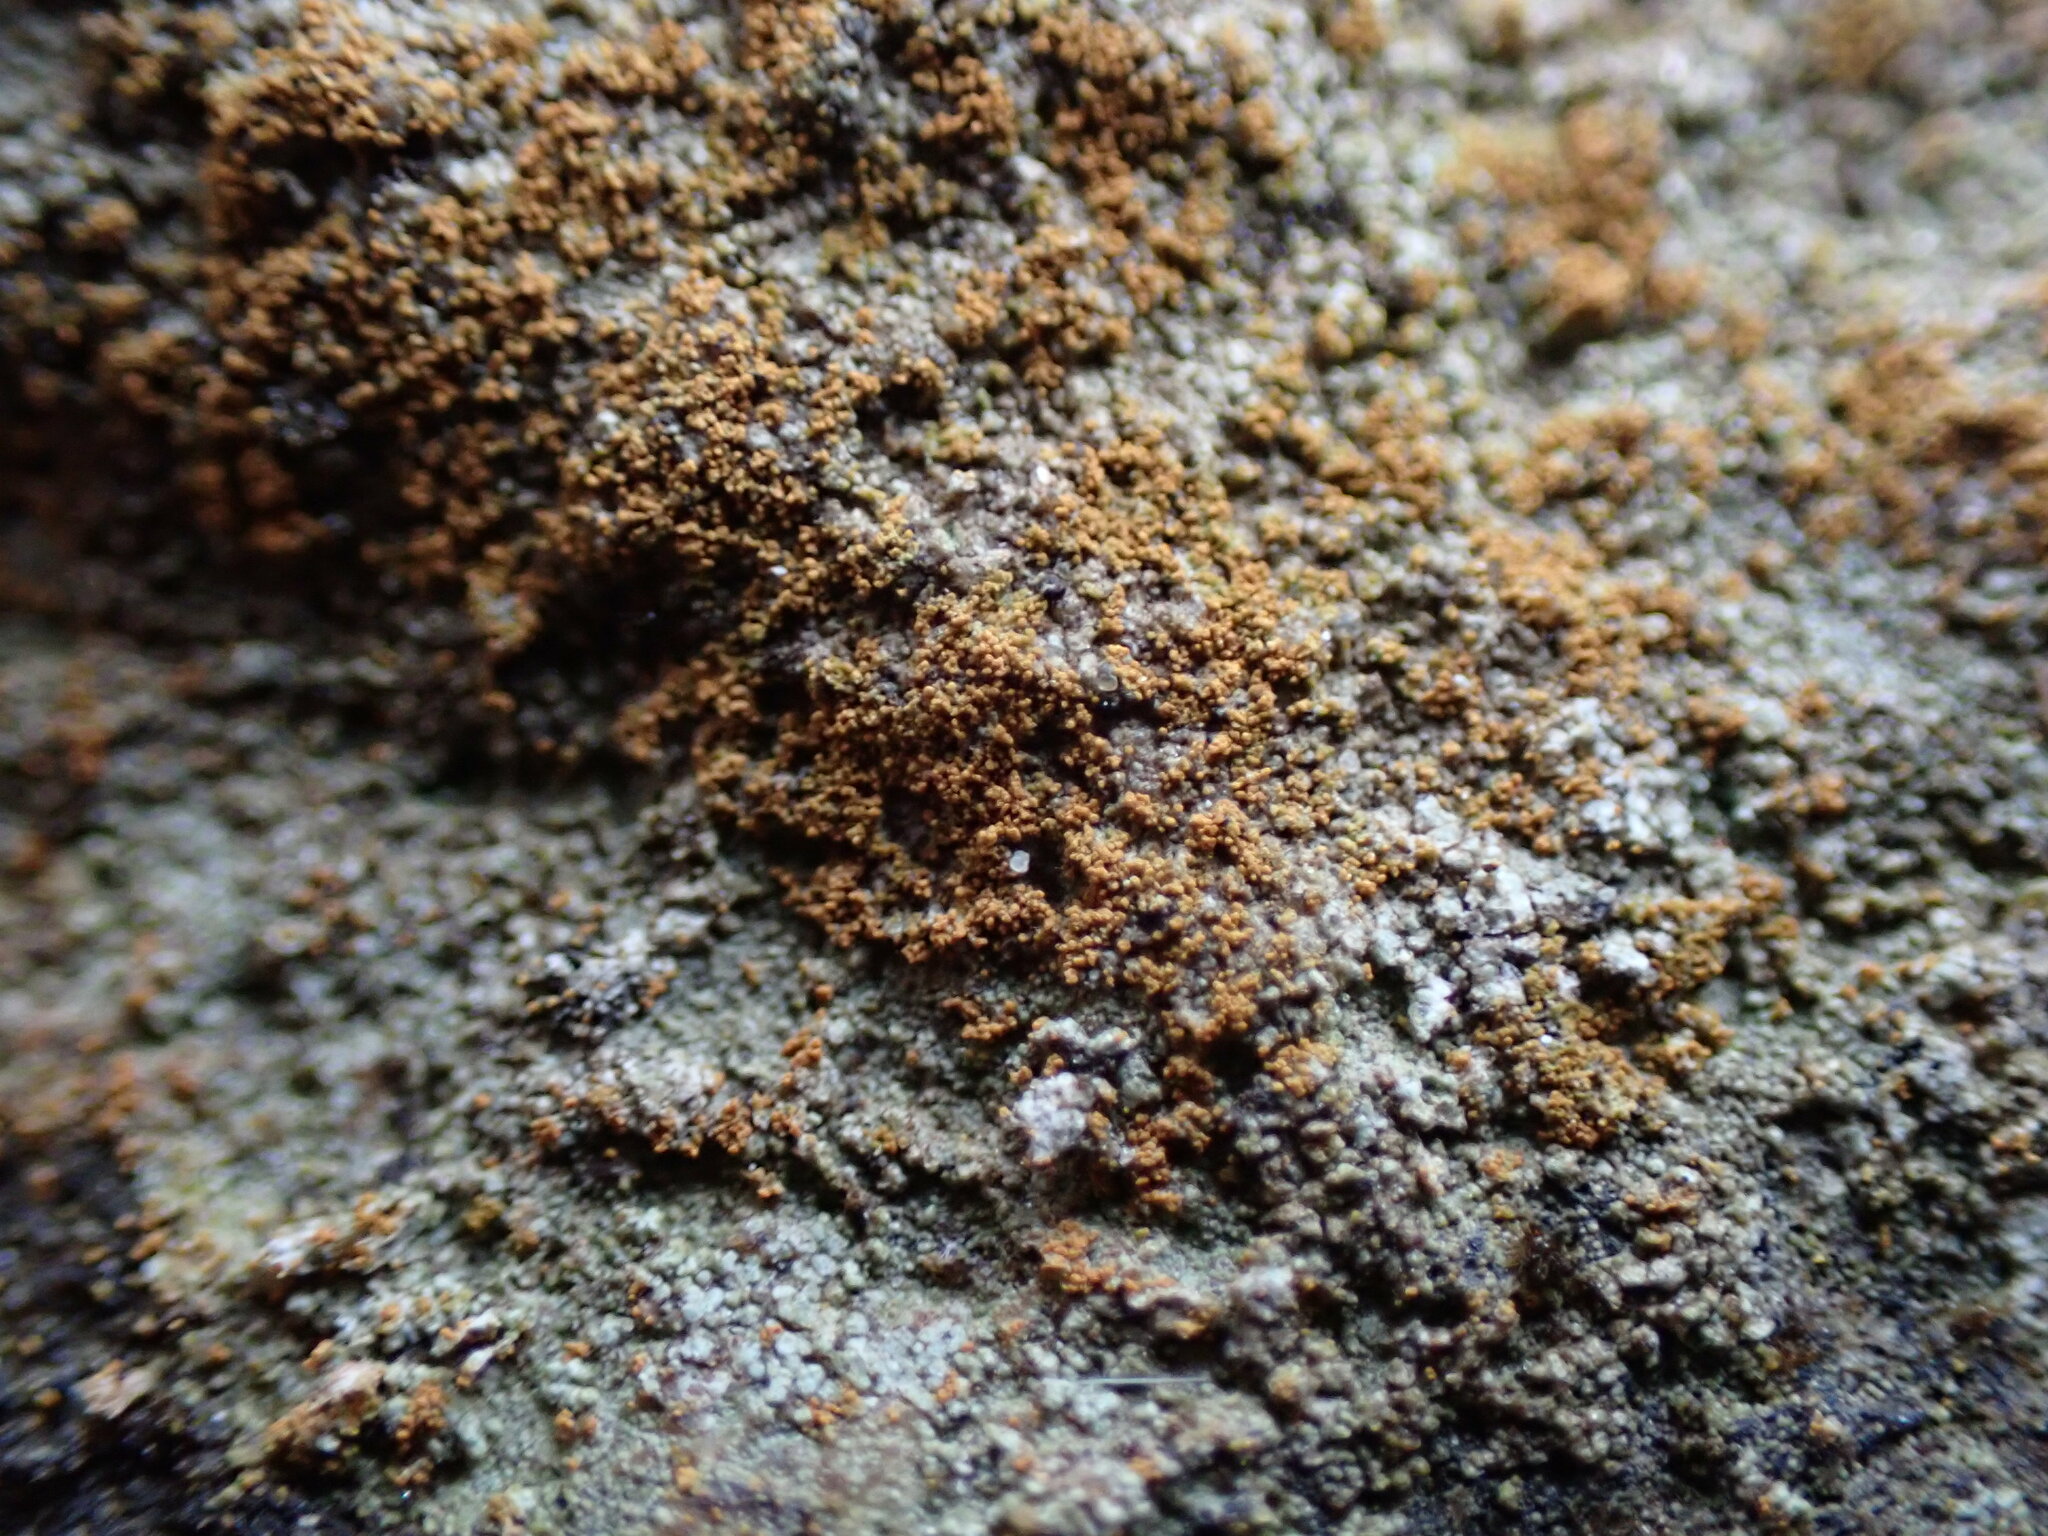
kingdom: Fungi
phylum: Ascomycota
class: Lecanoromycetes
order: Lecanorales
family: Byssolomataceae
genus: Fellhanera
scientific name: Fellhanera crucitignorum
